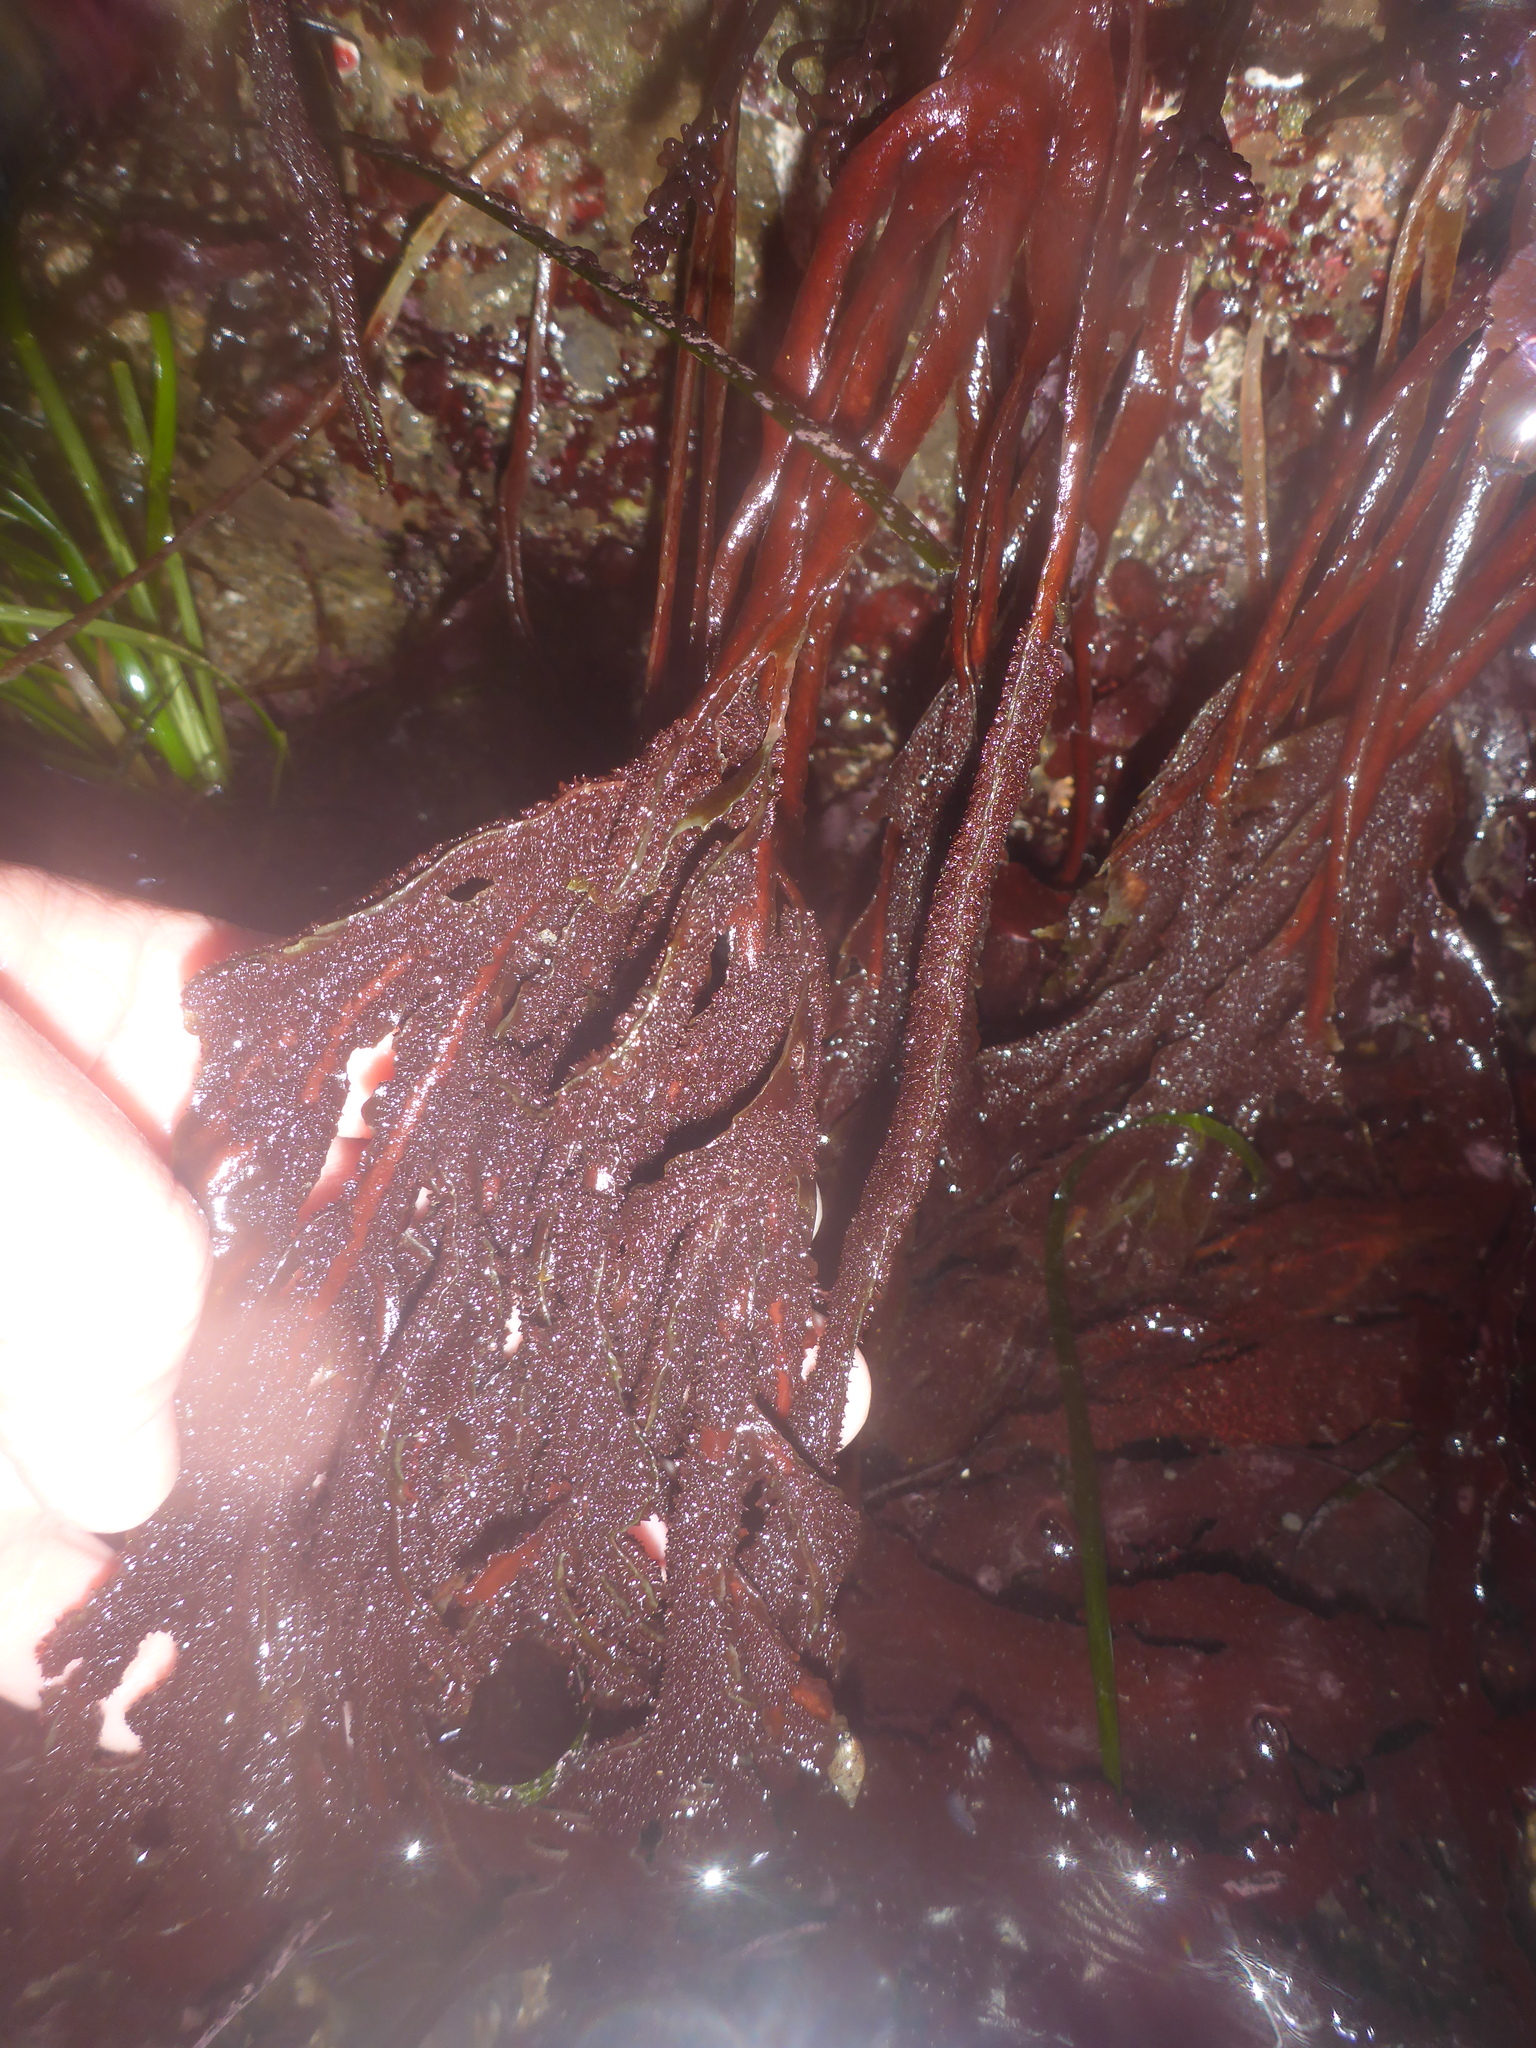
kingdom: Plantae
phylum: Rhodophyta
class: Florideophyceae
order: Gigartinales
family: Kallymeniaceae
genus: Erythrophyllum
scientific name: Erythrophyllum delesserioides
